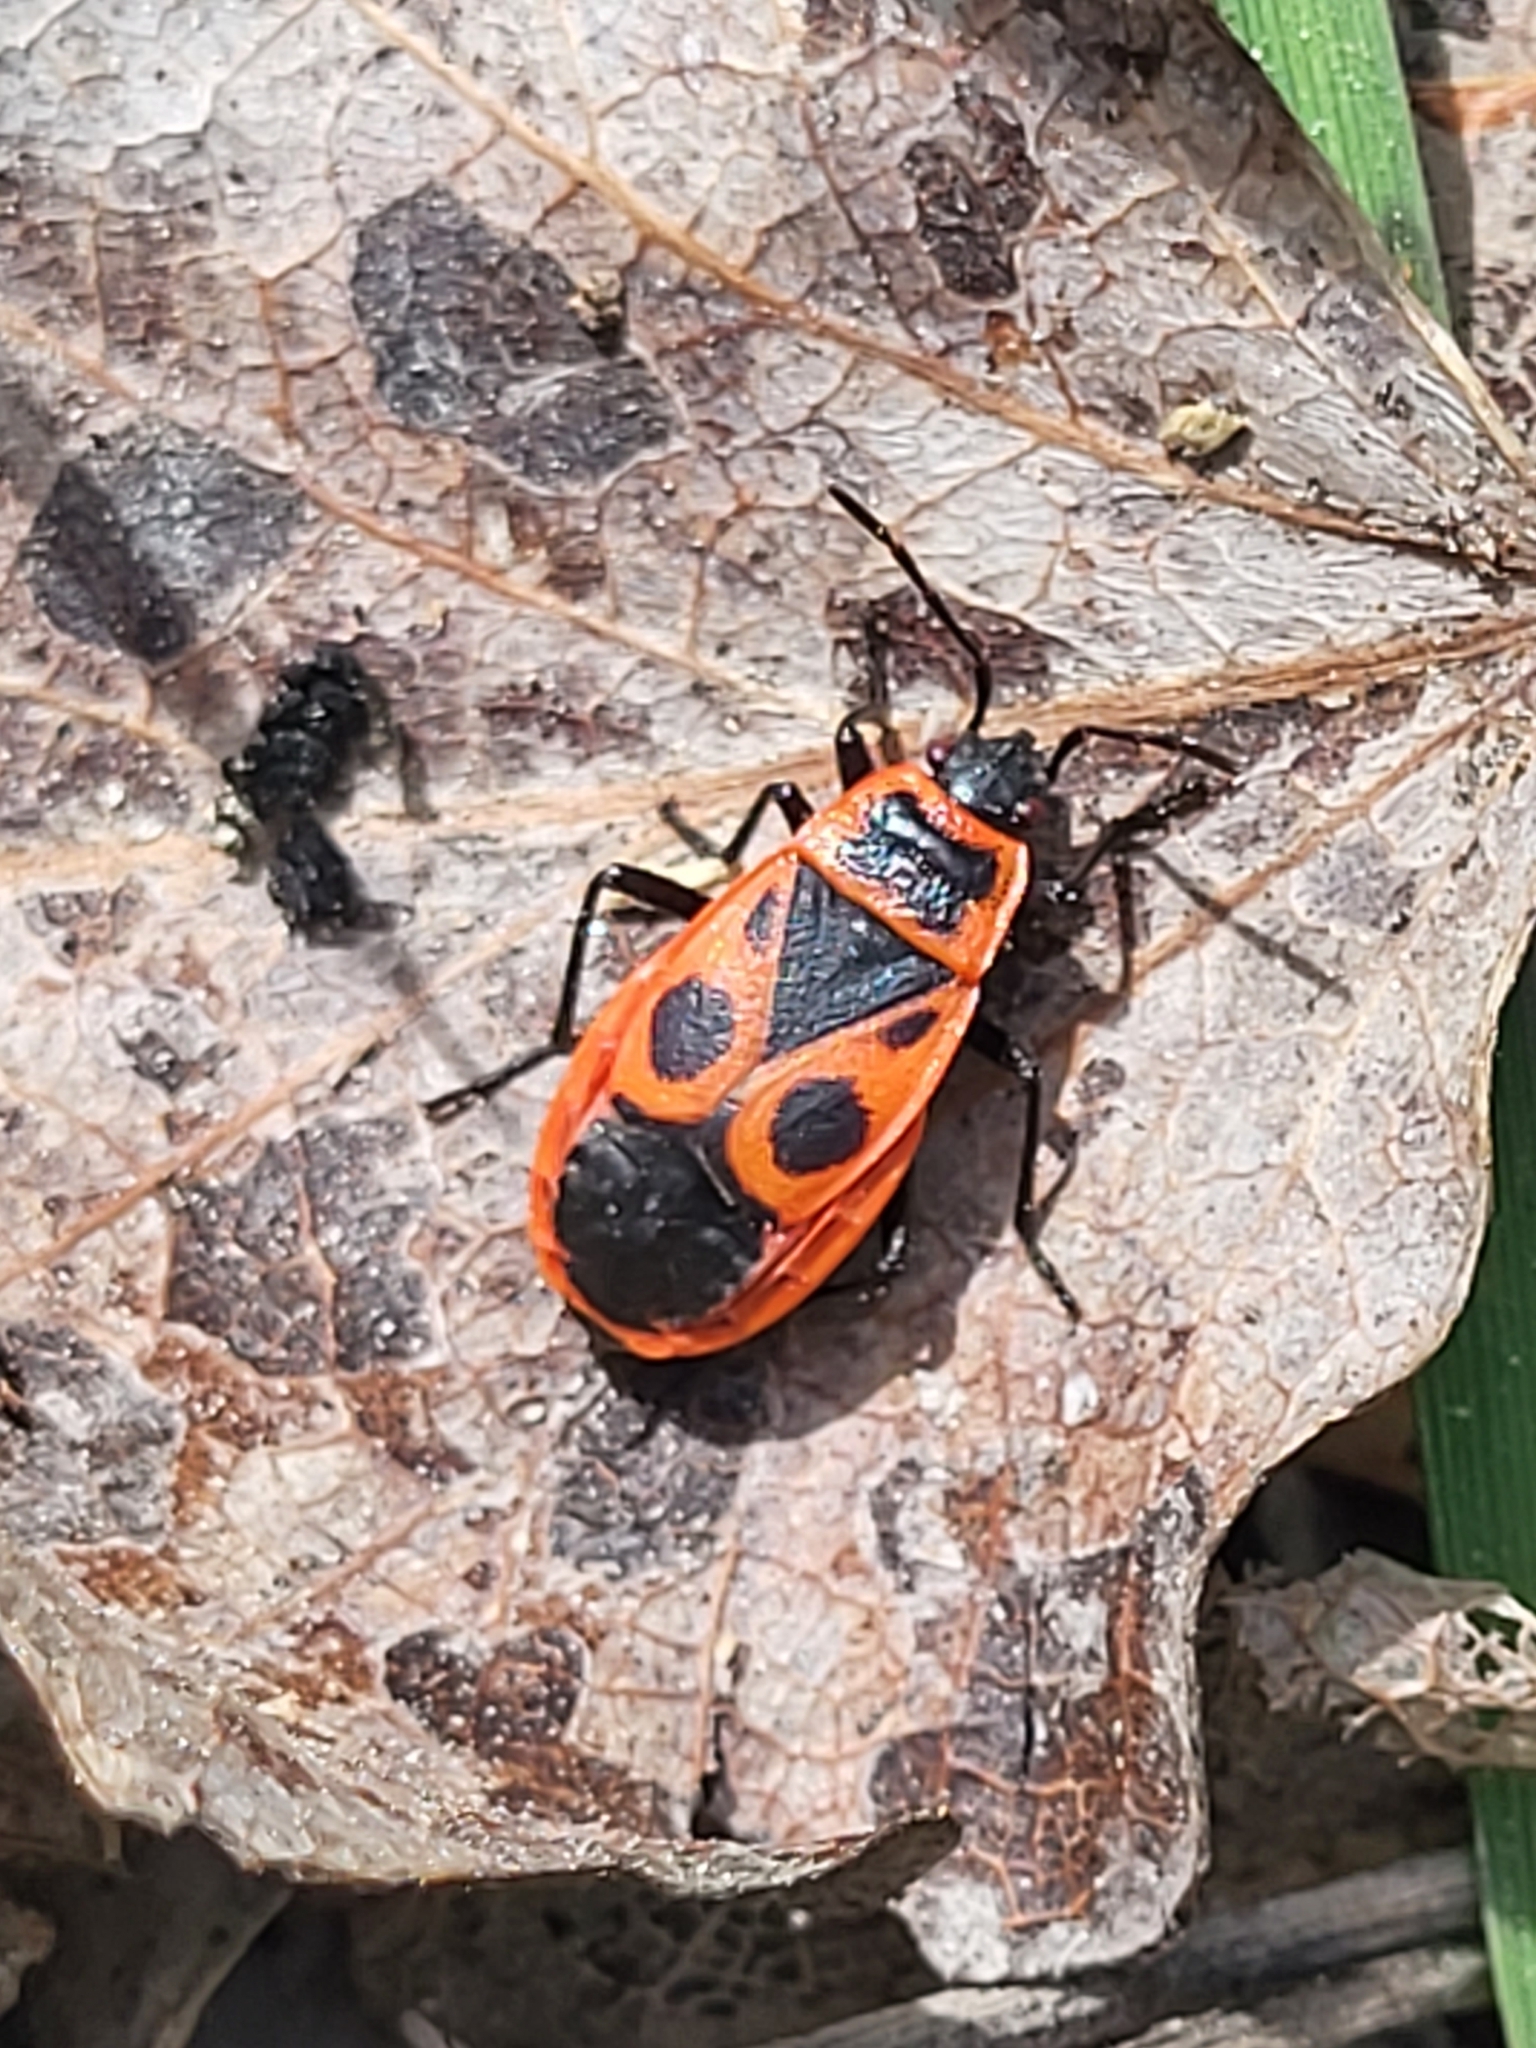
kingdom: Animalia
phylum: Arthropoda
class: Insecta
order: Hemiptera
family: Pyrrhocoridae
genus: Pyrrhocoris
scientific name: Pyrrhocoris apterus
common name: Firebug
